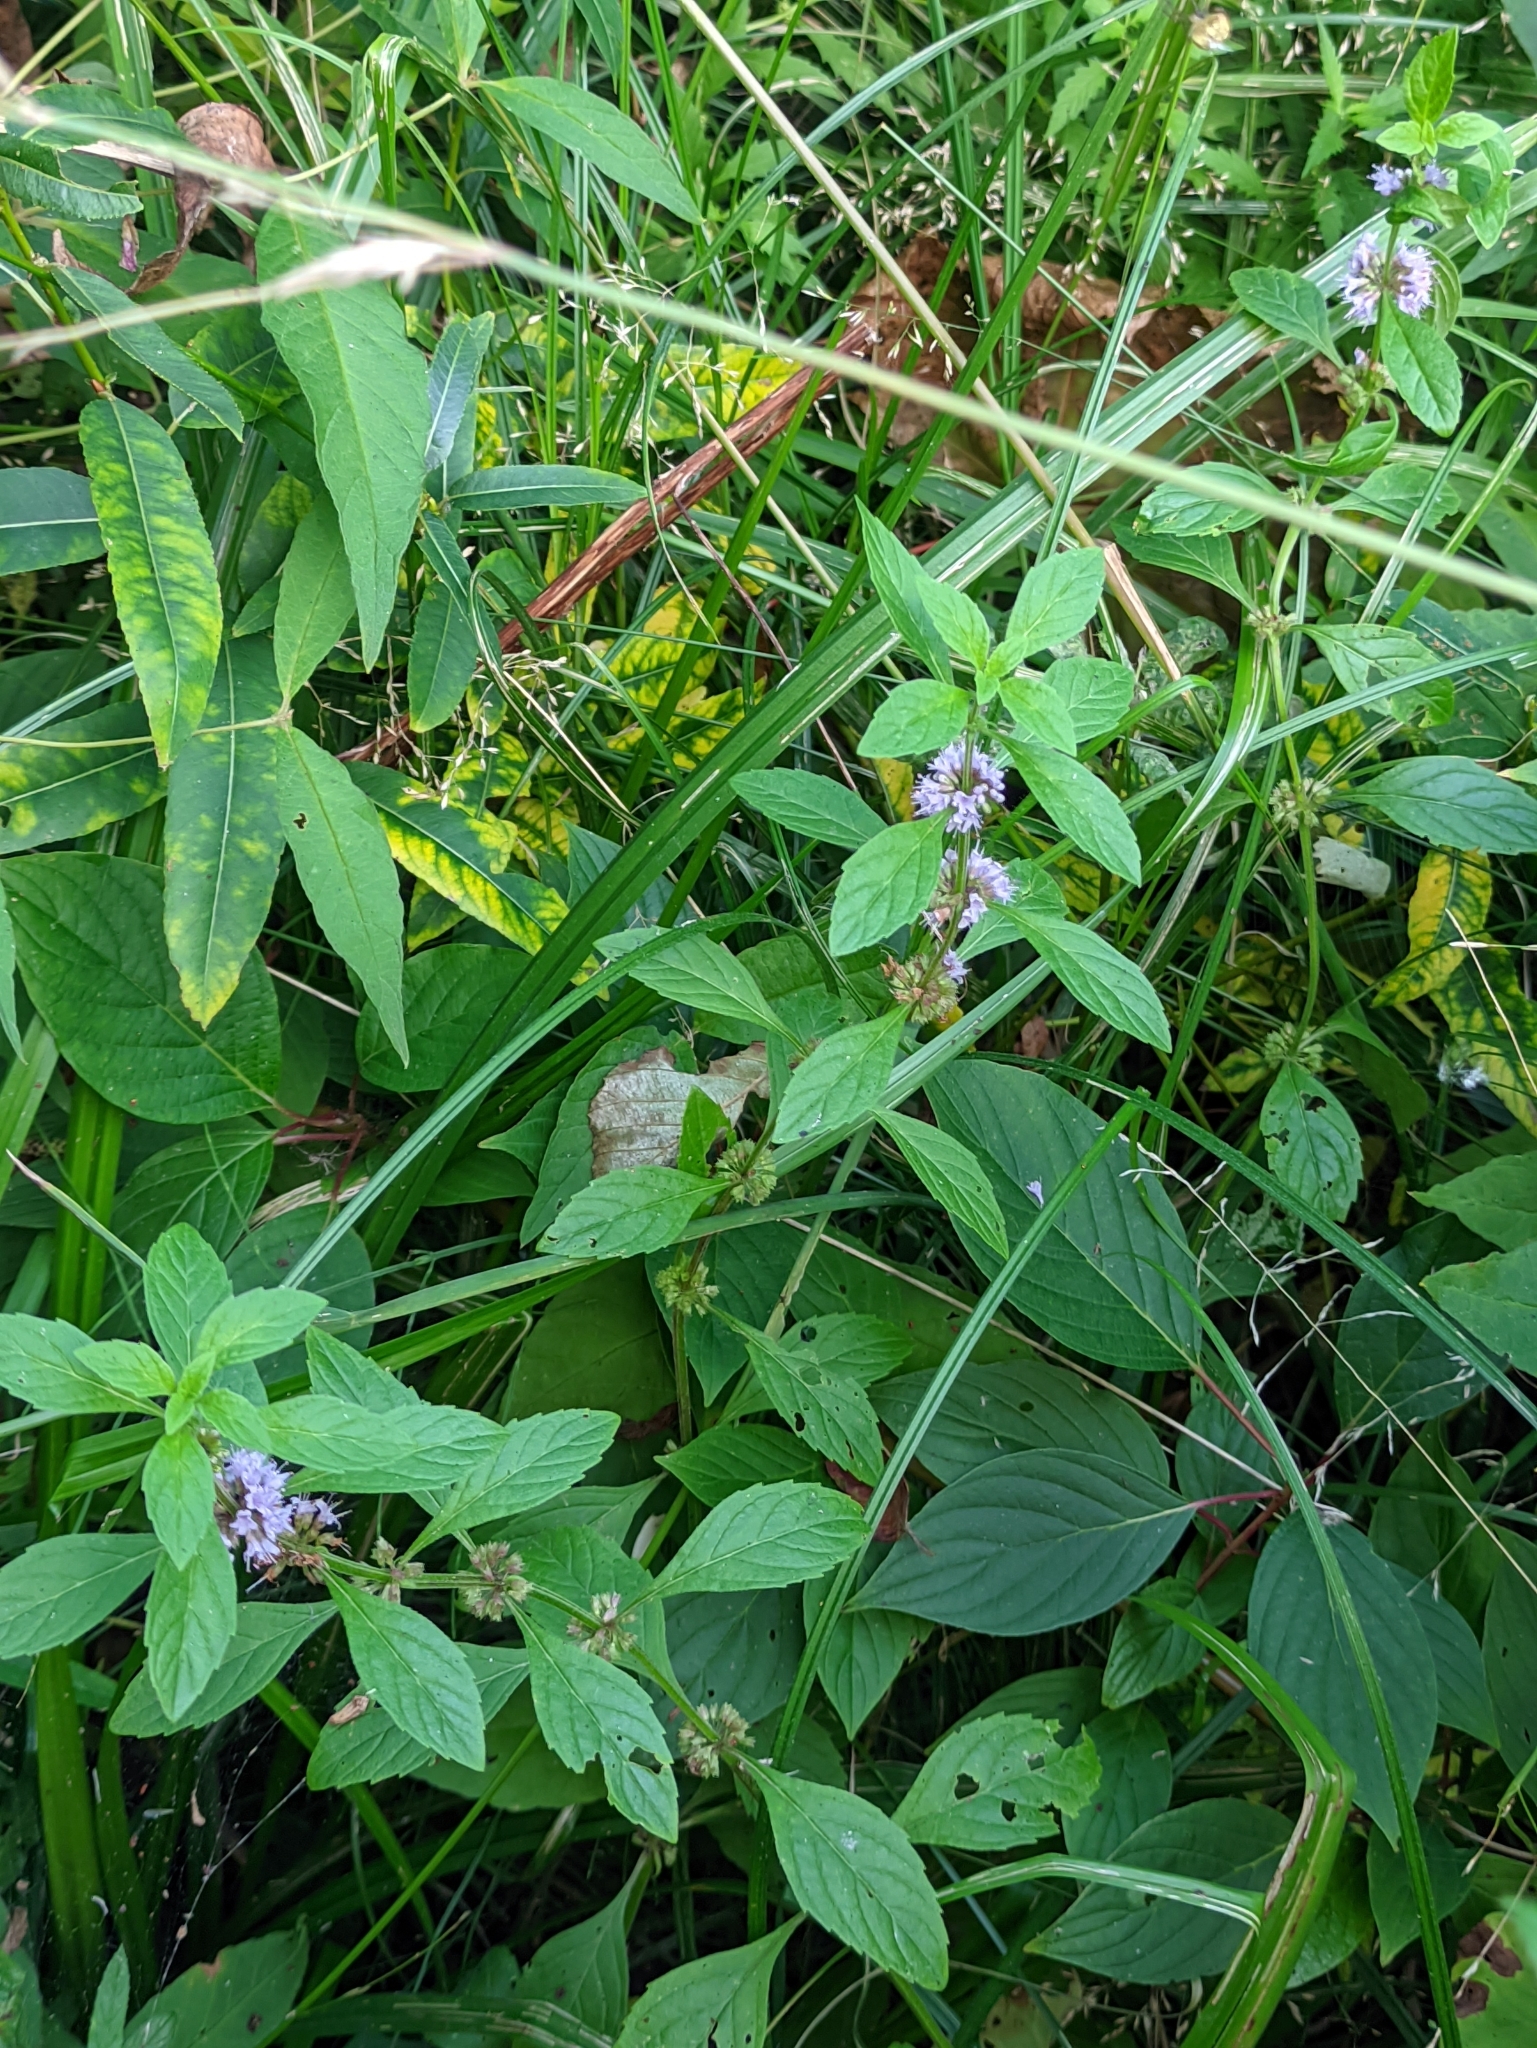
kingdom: Plantae
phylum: Tracheophyta
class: Magnoliopsida
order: Lamiales
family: Lamiaceae
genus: Mentha
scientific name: Mentha arvensis
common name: Corn mint
